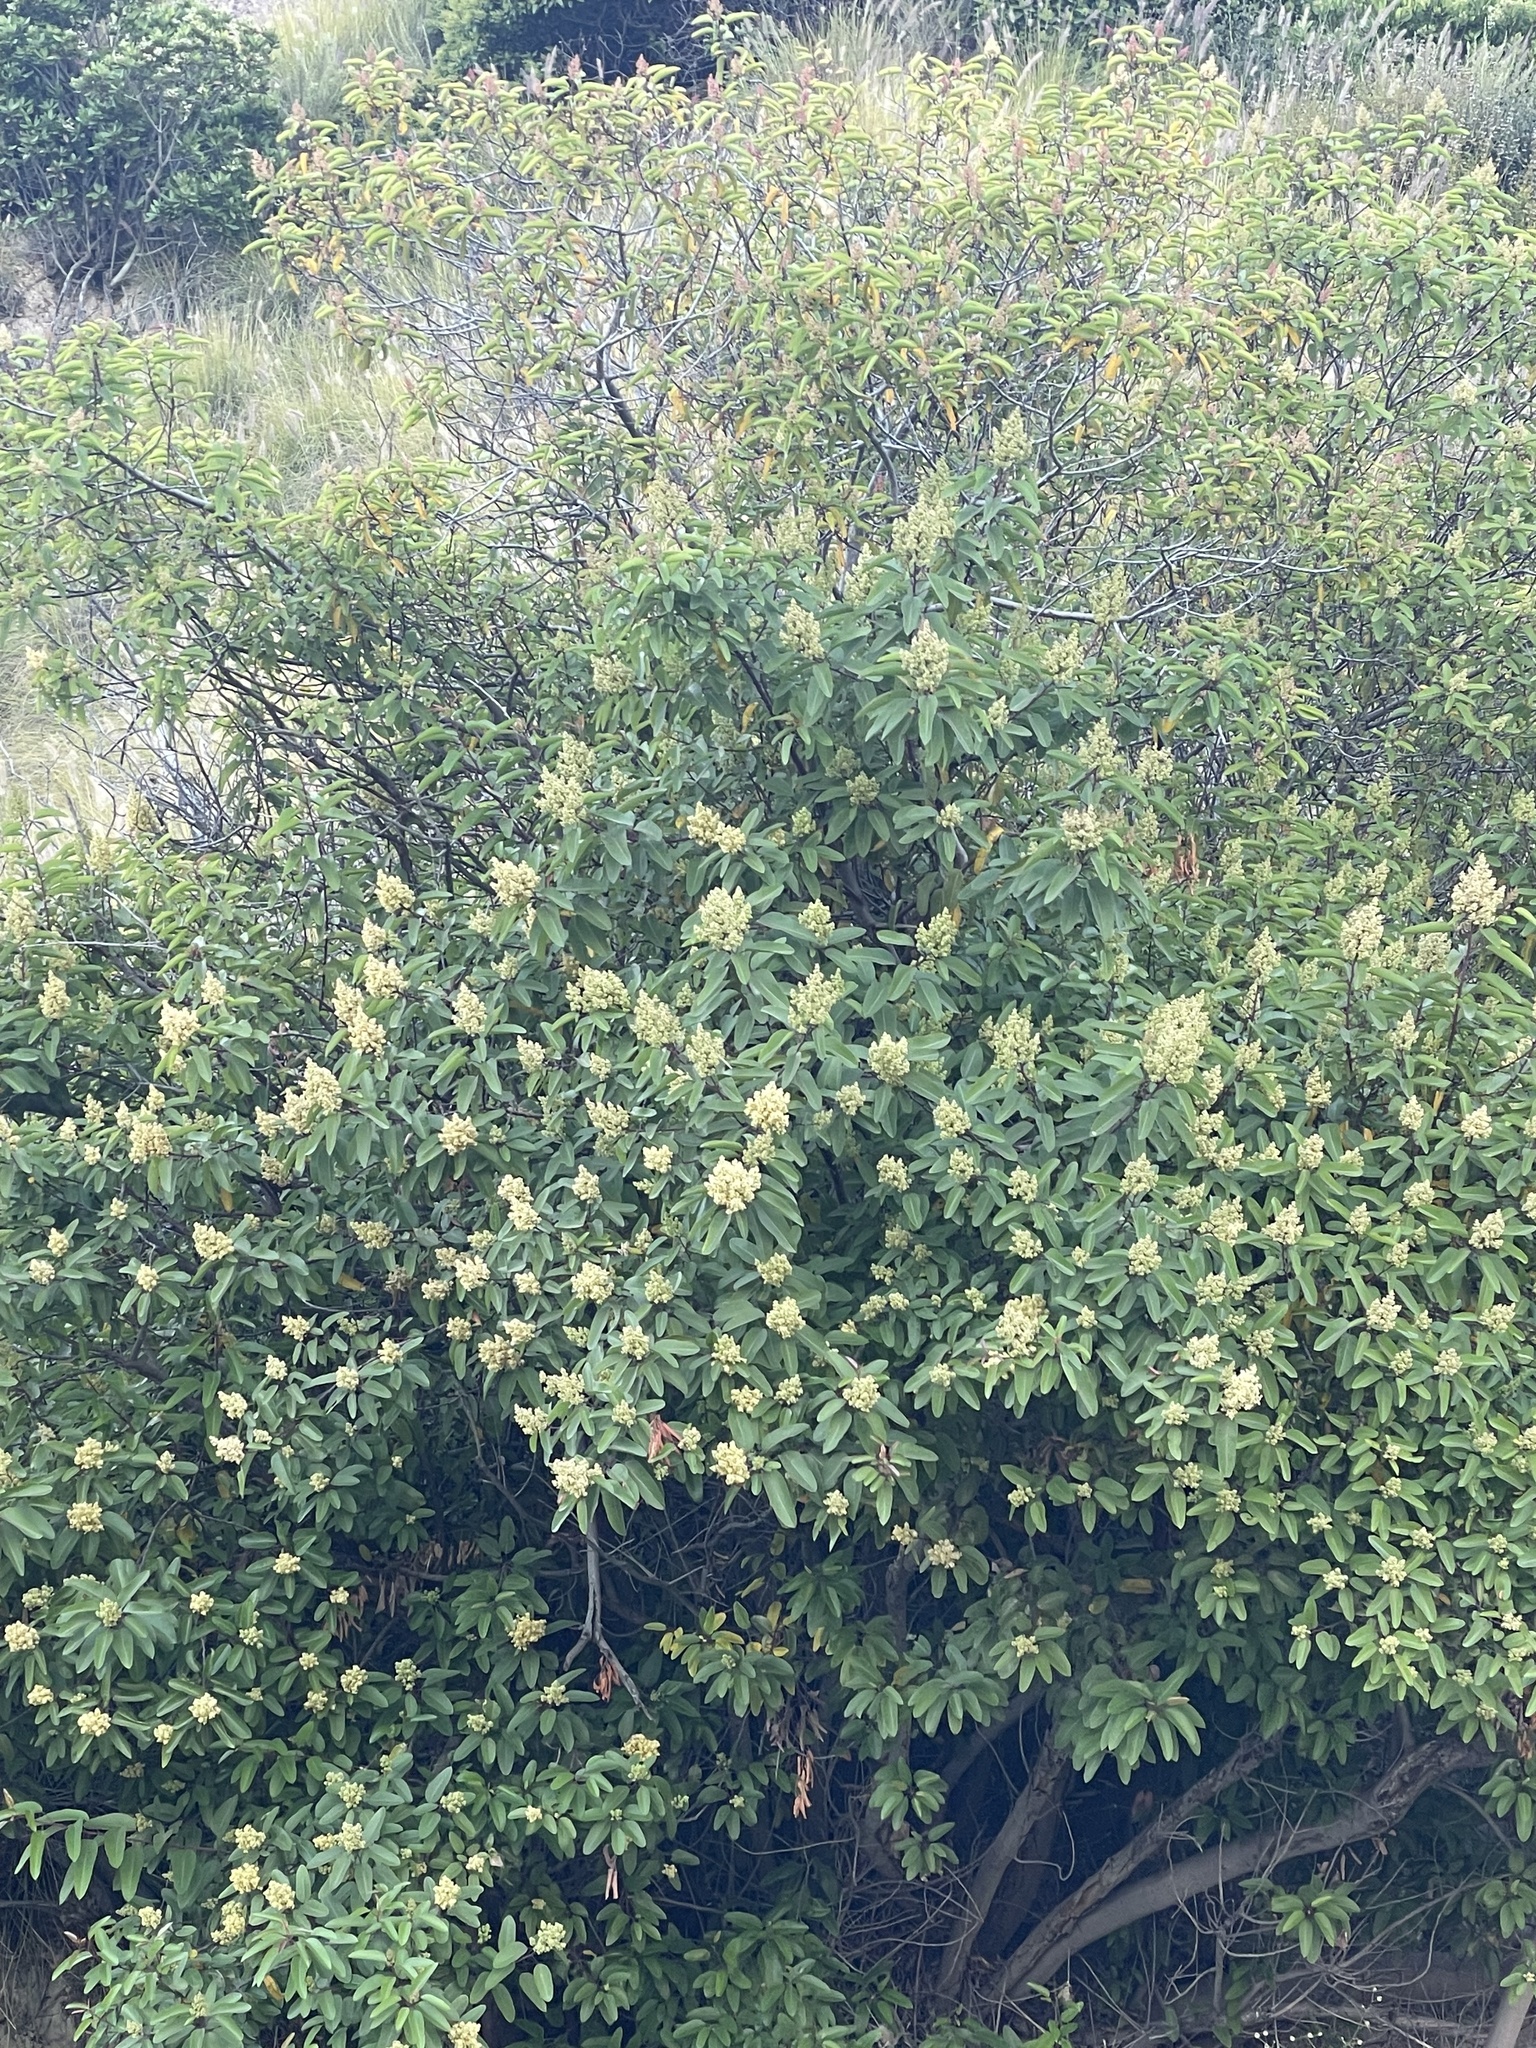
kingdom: Plantae
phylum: Tracheophyta
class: Magnoliopsida
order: Sapindales
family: Anacardiaceae
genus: Malosma
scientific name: Malosma laurina
